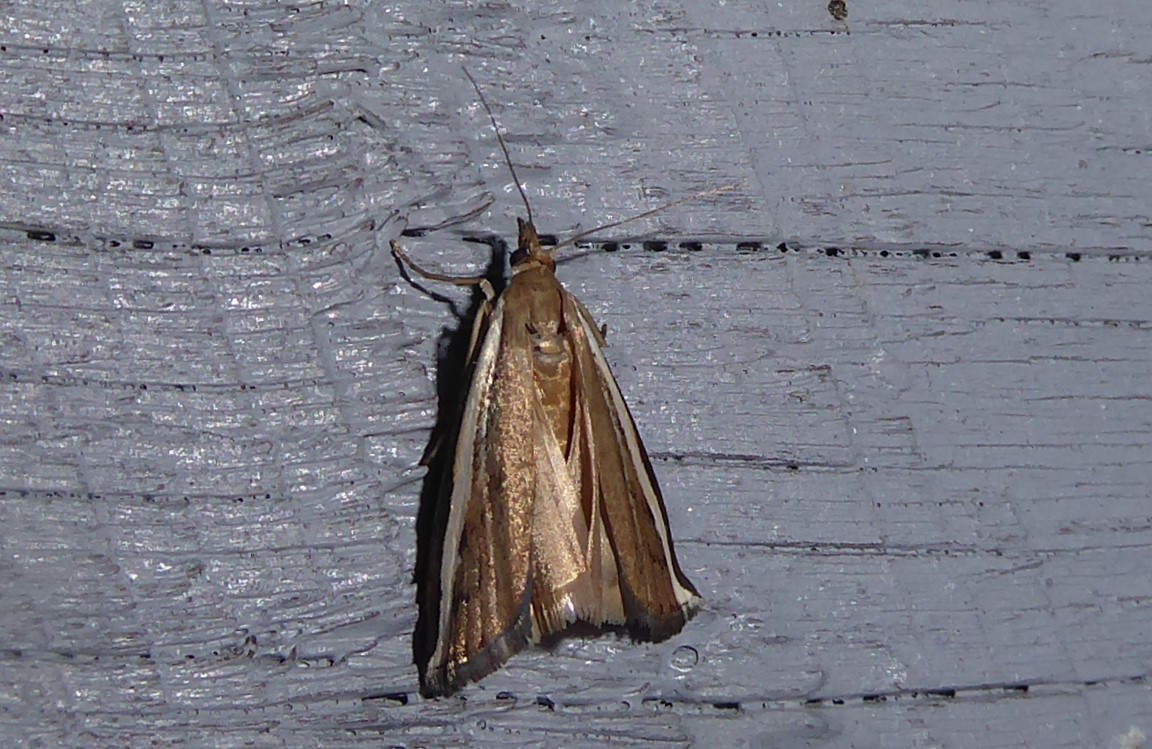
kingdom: Animalia
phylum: Arthropoda
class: Insecta
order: Lepidoptera
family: Crambidae
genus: Orocrambus
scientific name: Orocrambus flexuosellus
